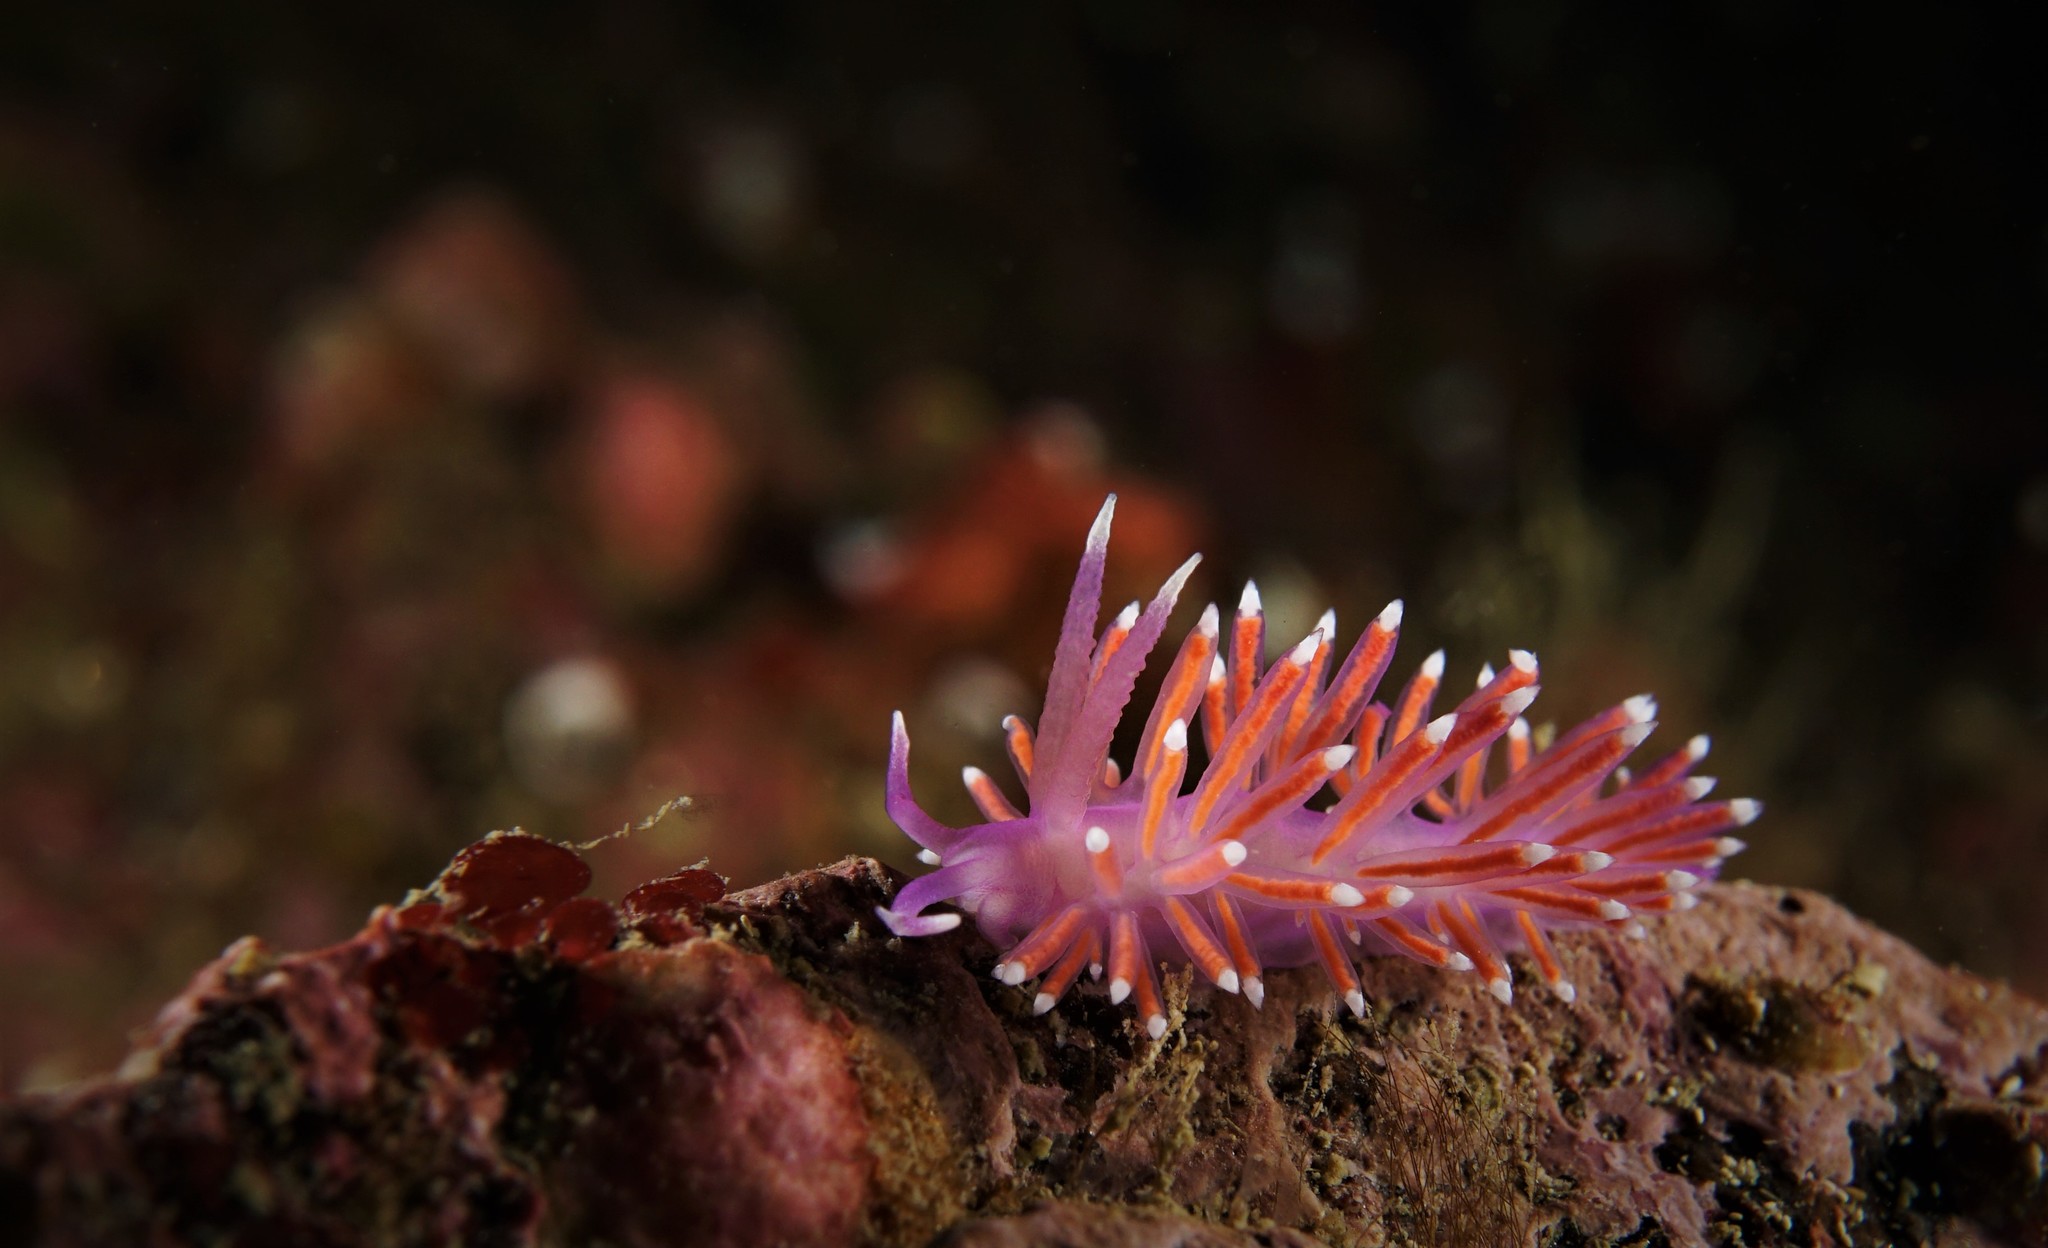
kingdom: Animalia
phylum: Mollusca
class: Gastropoda
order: Nudibranchia
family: Flabellinidae
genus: Edmundsella
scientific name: Edmundsella pedata
